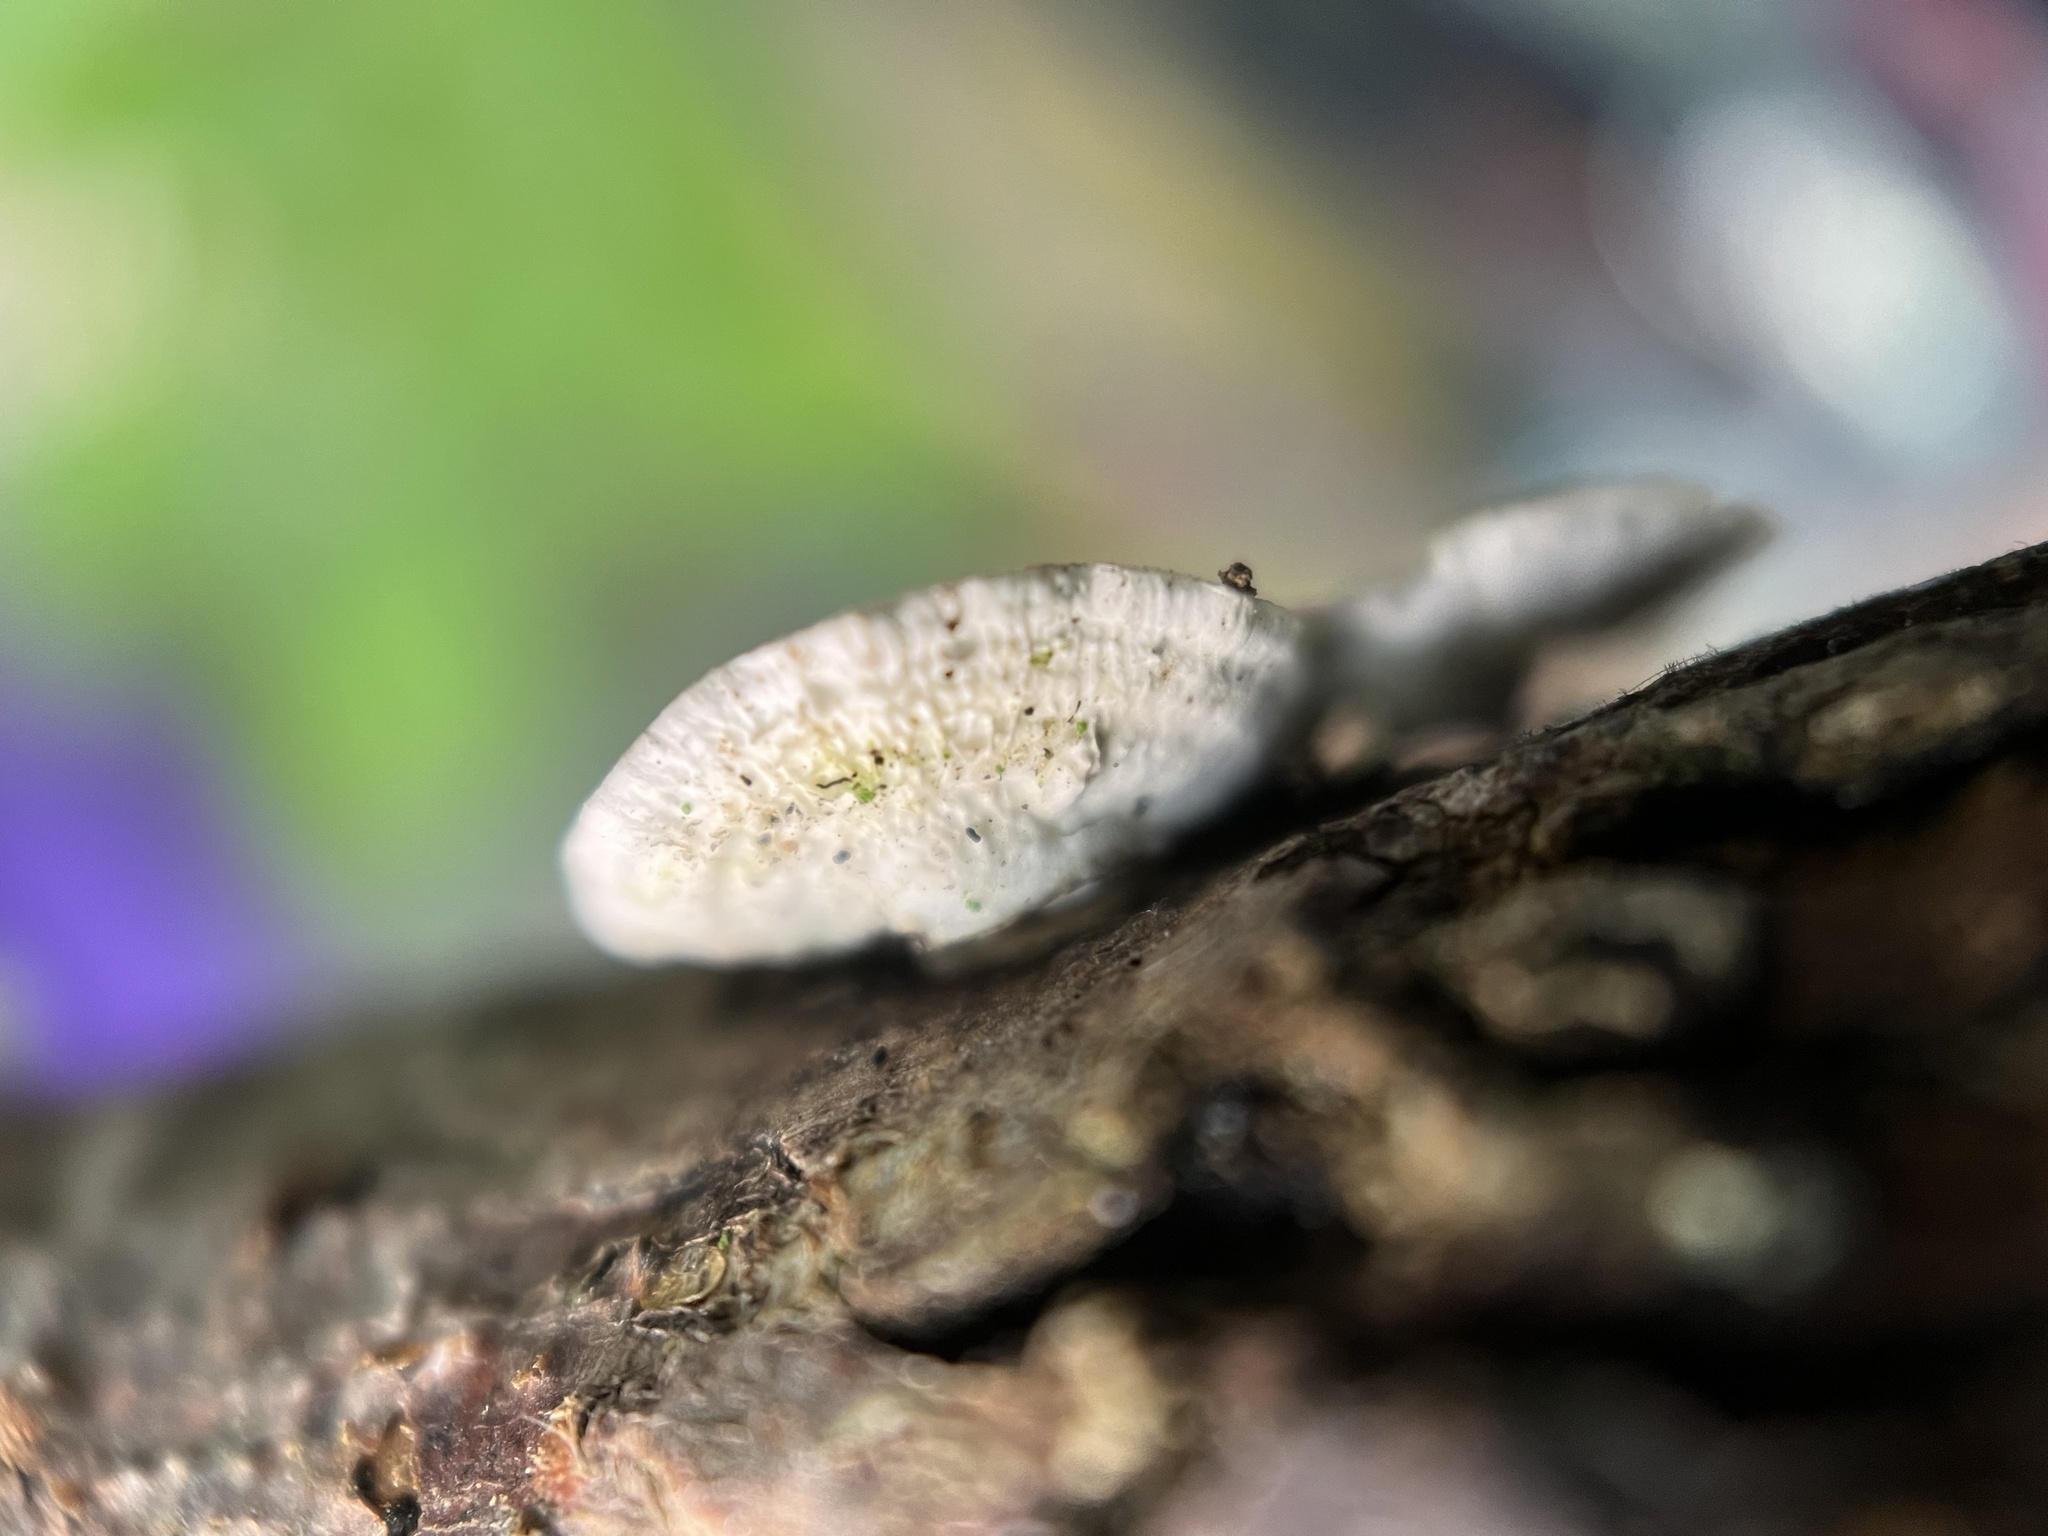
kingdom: Fungi
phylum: Basidiomycota
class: Agaricomycetes
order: Polyporales
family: Polyporaceae
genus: Poronidulus
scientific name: Poronidulus conchifer
